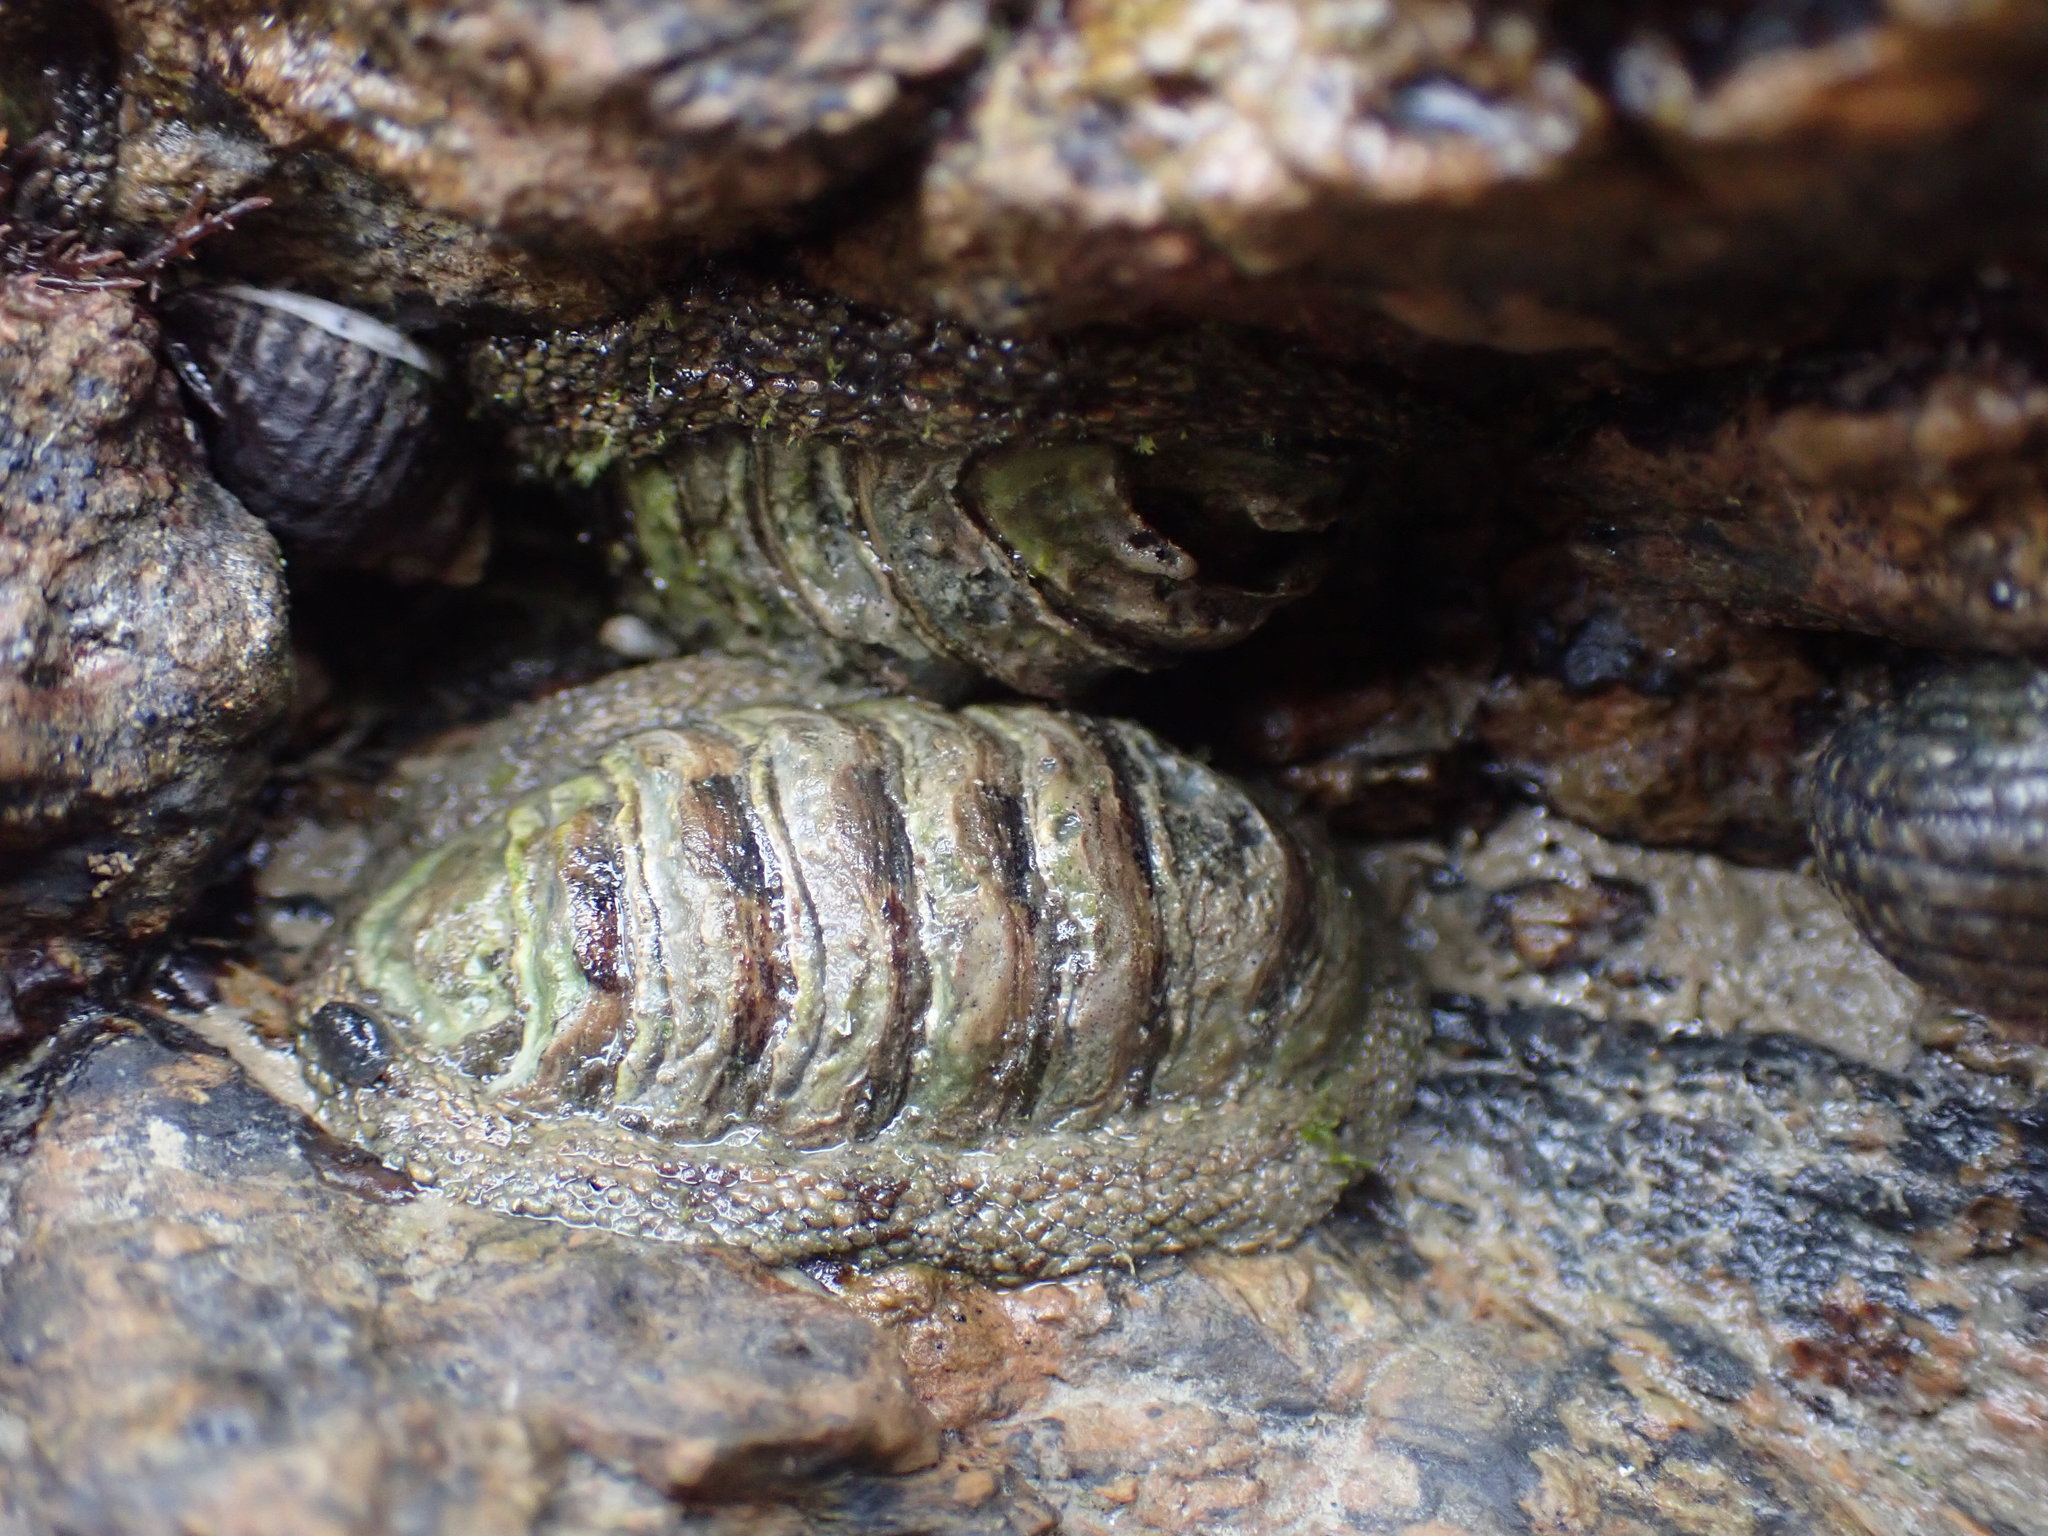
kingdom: Animalia
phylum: Mollusca
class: Polyplacophora
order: Chitonida
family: Chitonidae
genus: Sypharochiton
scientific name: Sypharochiton pelliserpentis
